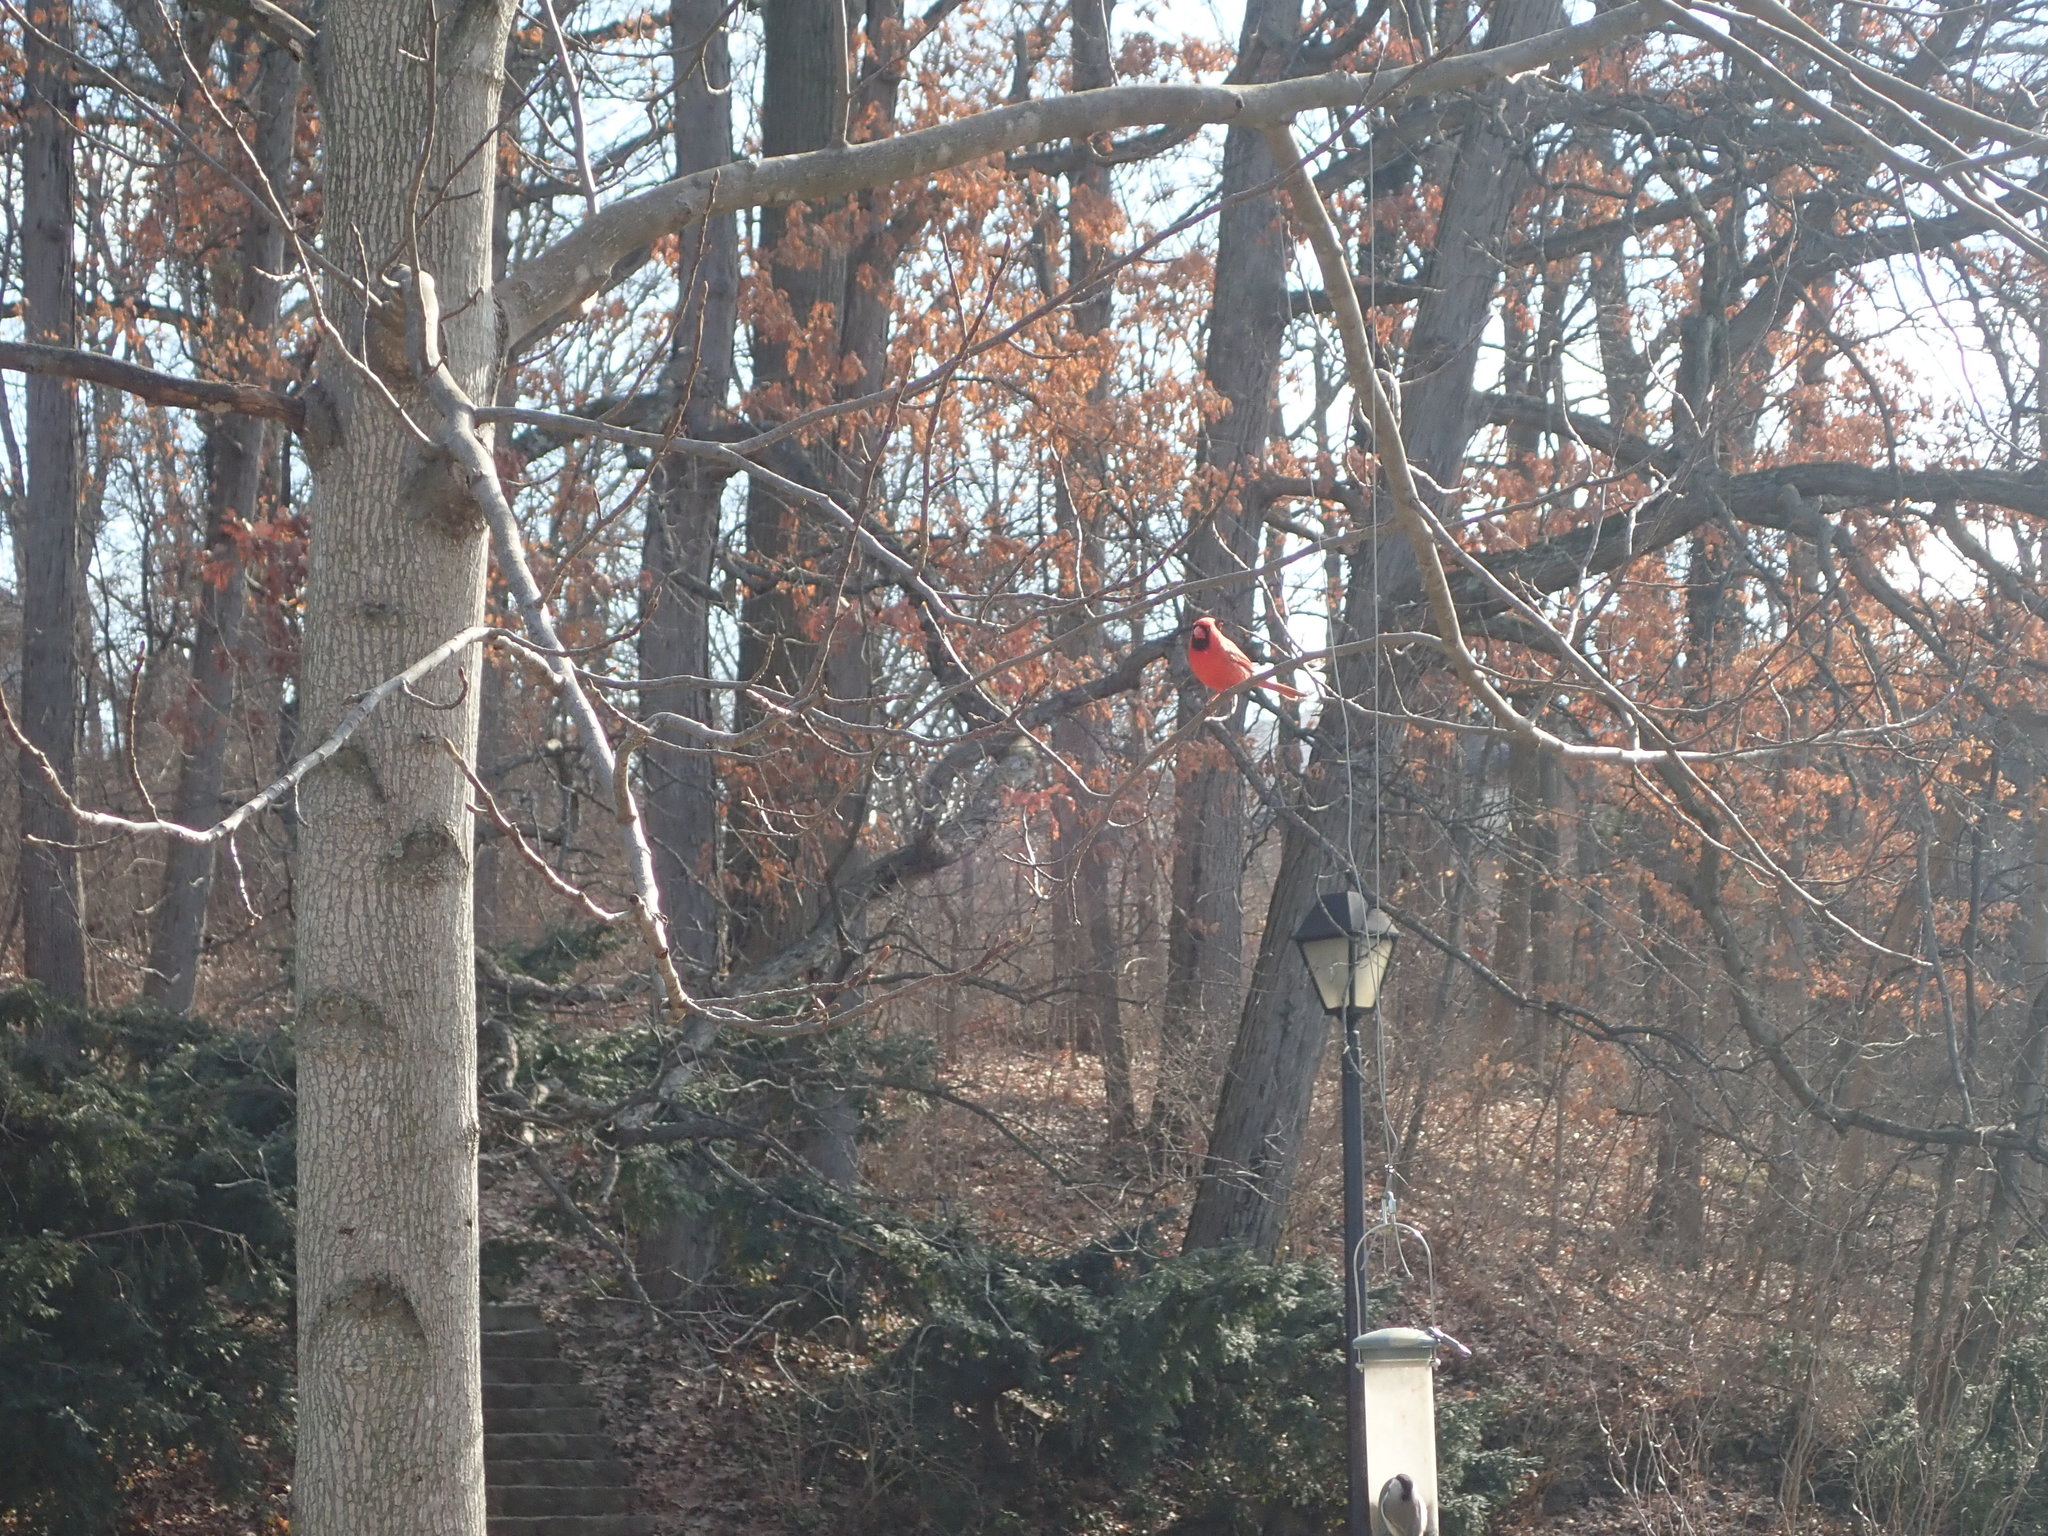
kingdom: Animalia
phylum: Chordata
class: Aves
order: Passeriformes
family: Cardinalidae
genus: Cardinalis
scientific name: Cardinalis cardinalis
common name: Northern cardinal
